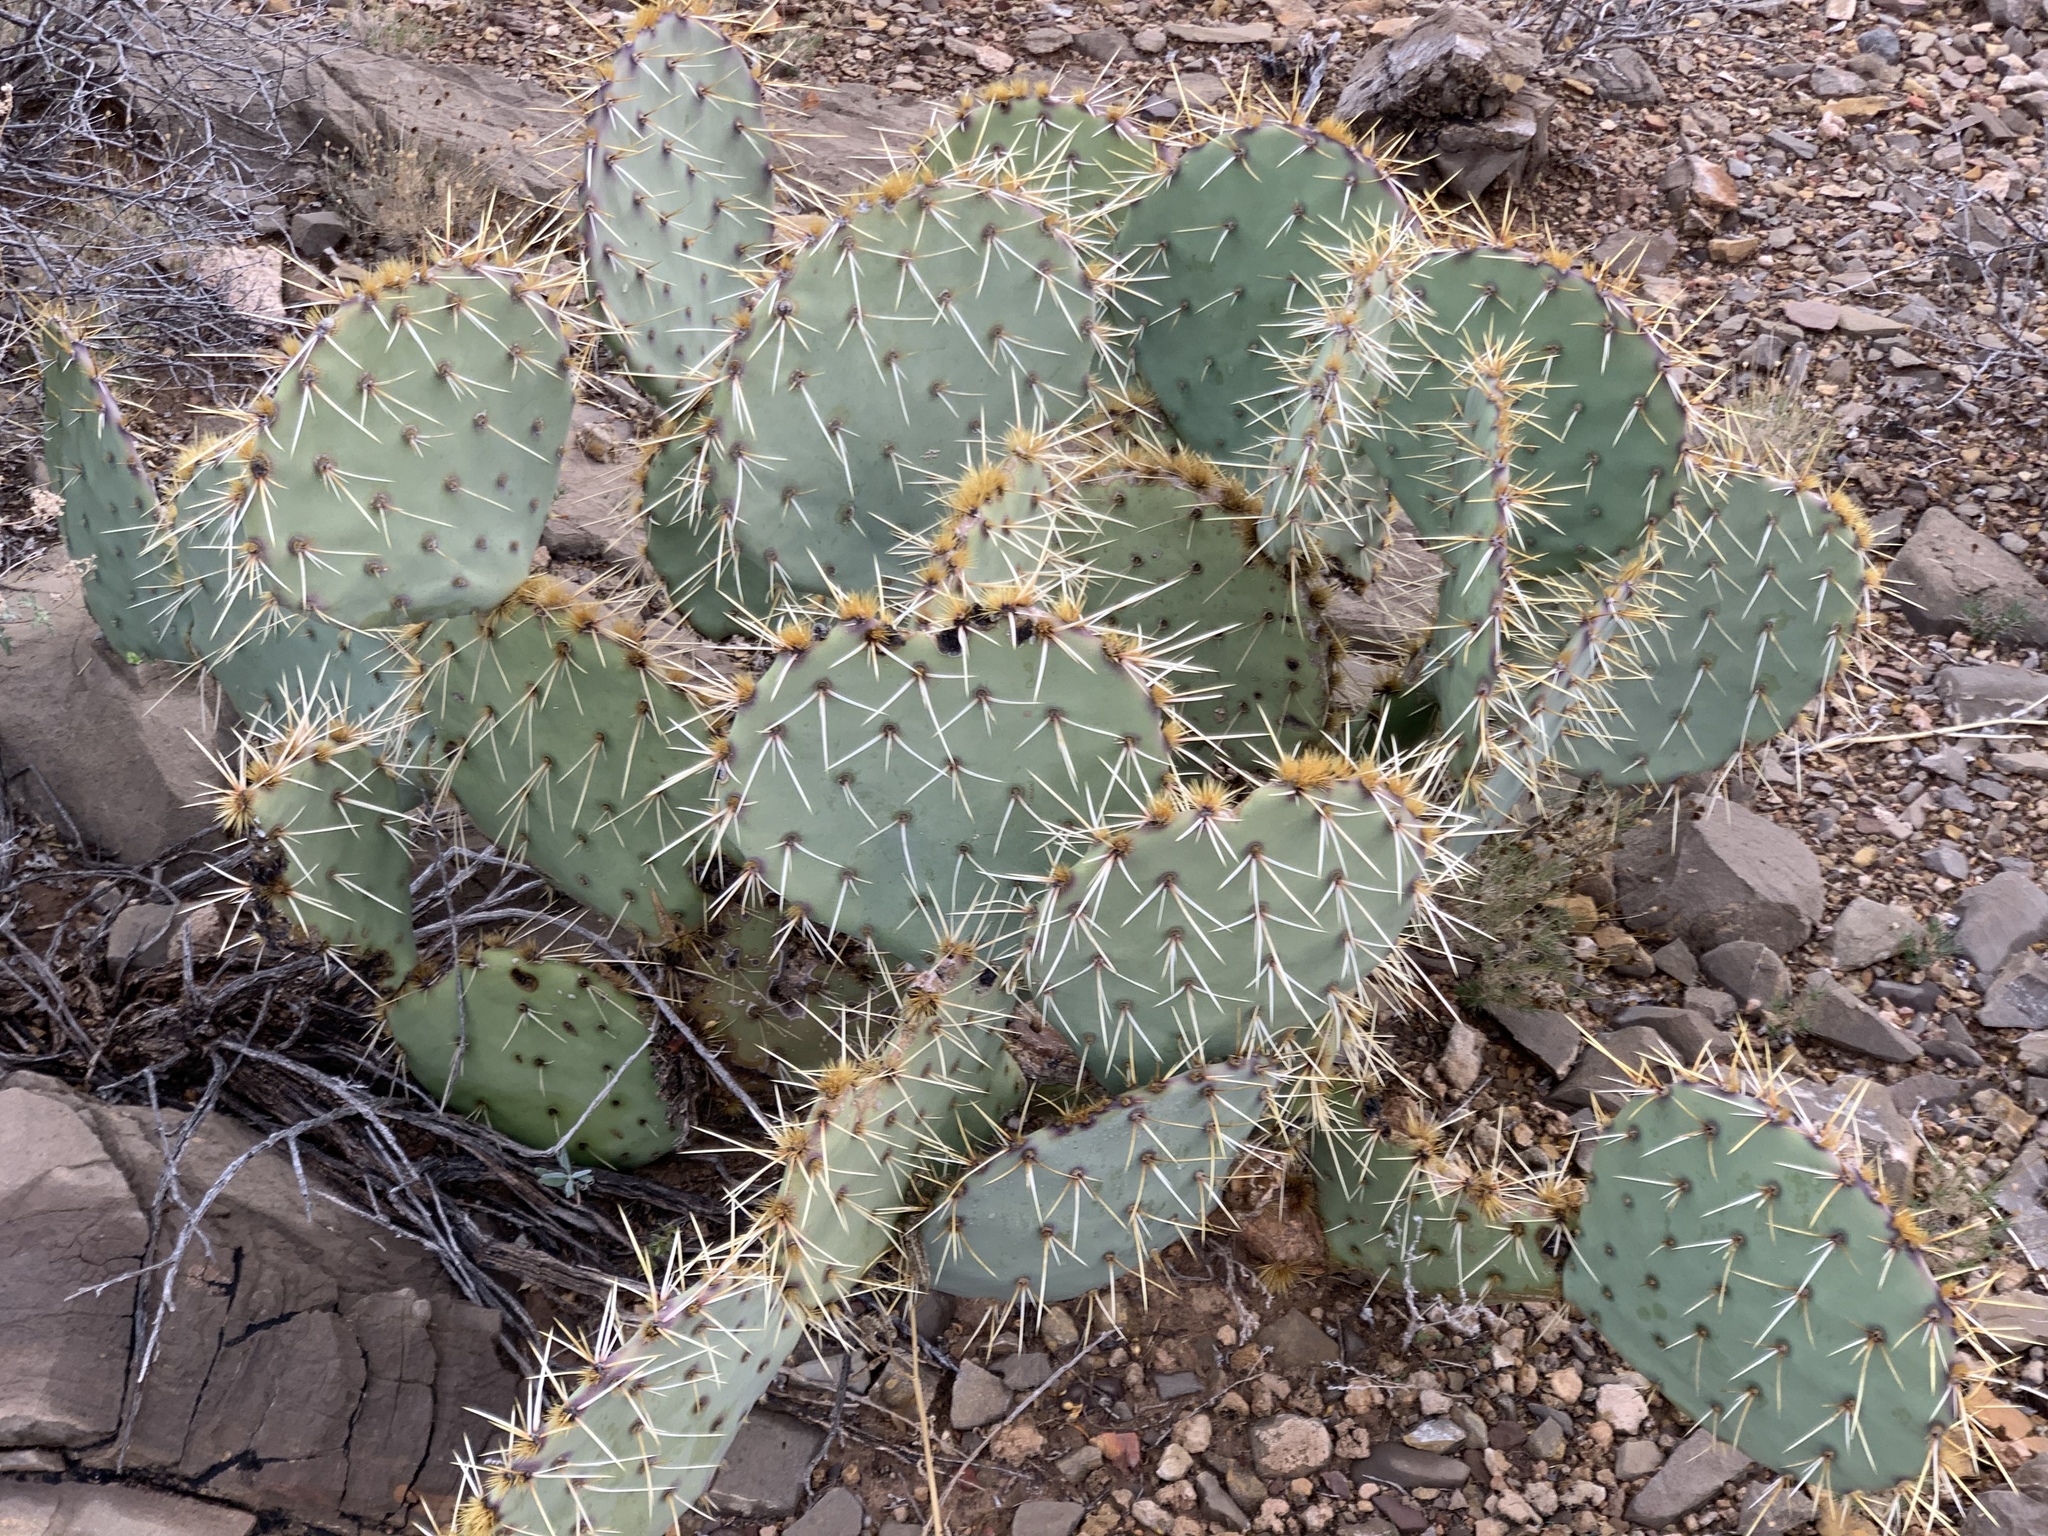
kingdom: Plantae
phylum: Tracheophyta
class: Magnoliopsida
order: Caryophyllales
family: Cactaceae
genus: Opuntia
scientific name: Opuntia phaeacantha
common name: New mexico prickly-pear
